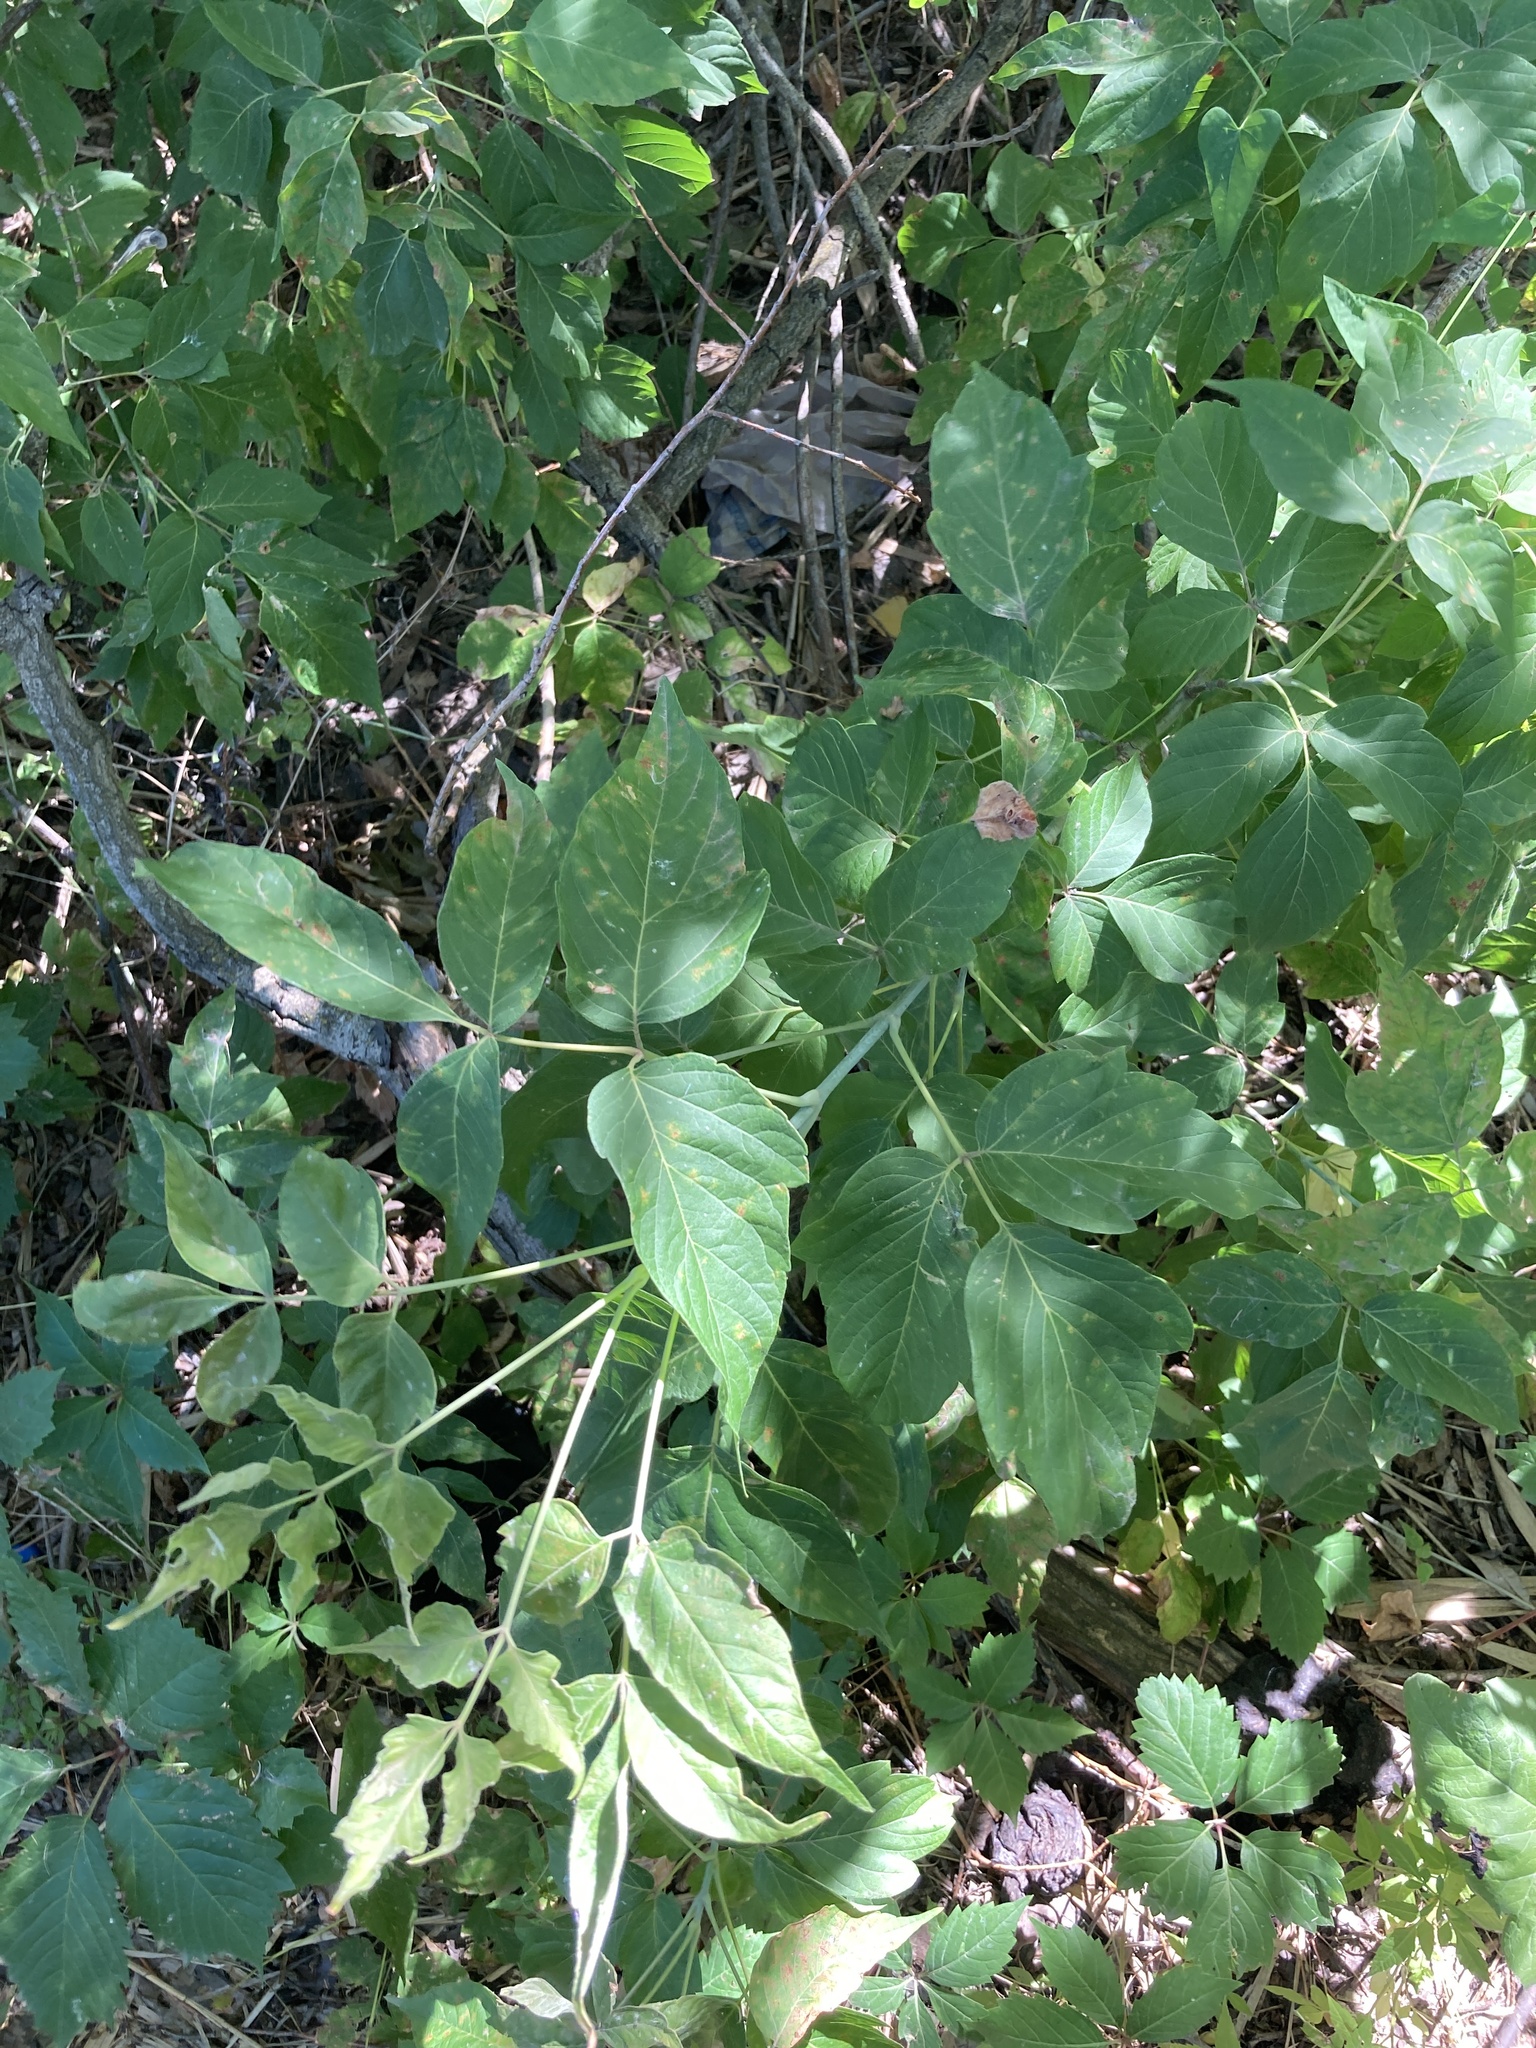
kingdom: Plantae
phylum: Tracheophyta
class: Magnoliopsida
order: Sapindales
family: Sapindaceae
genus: Acer
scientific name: Acer negundo
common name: Ashleaf maple
